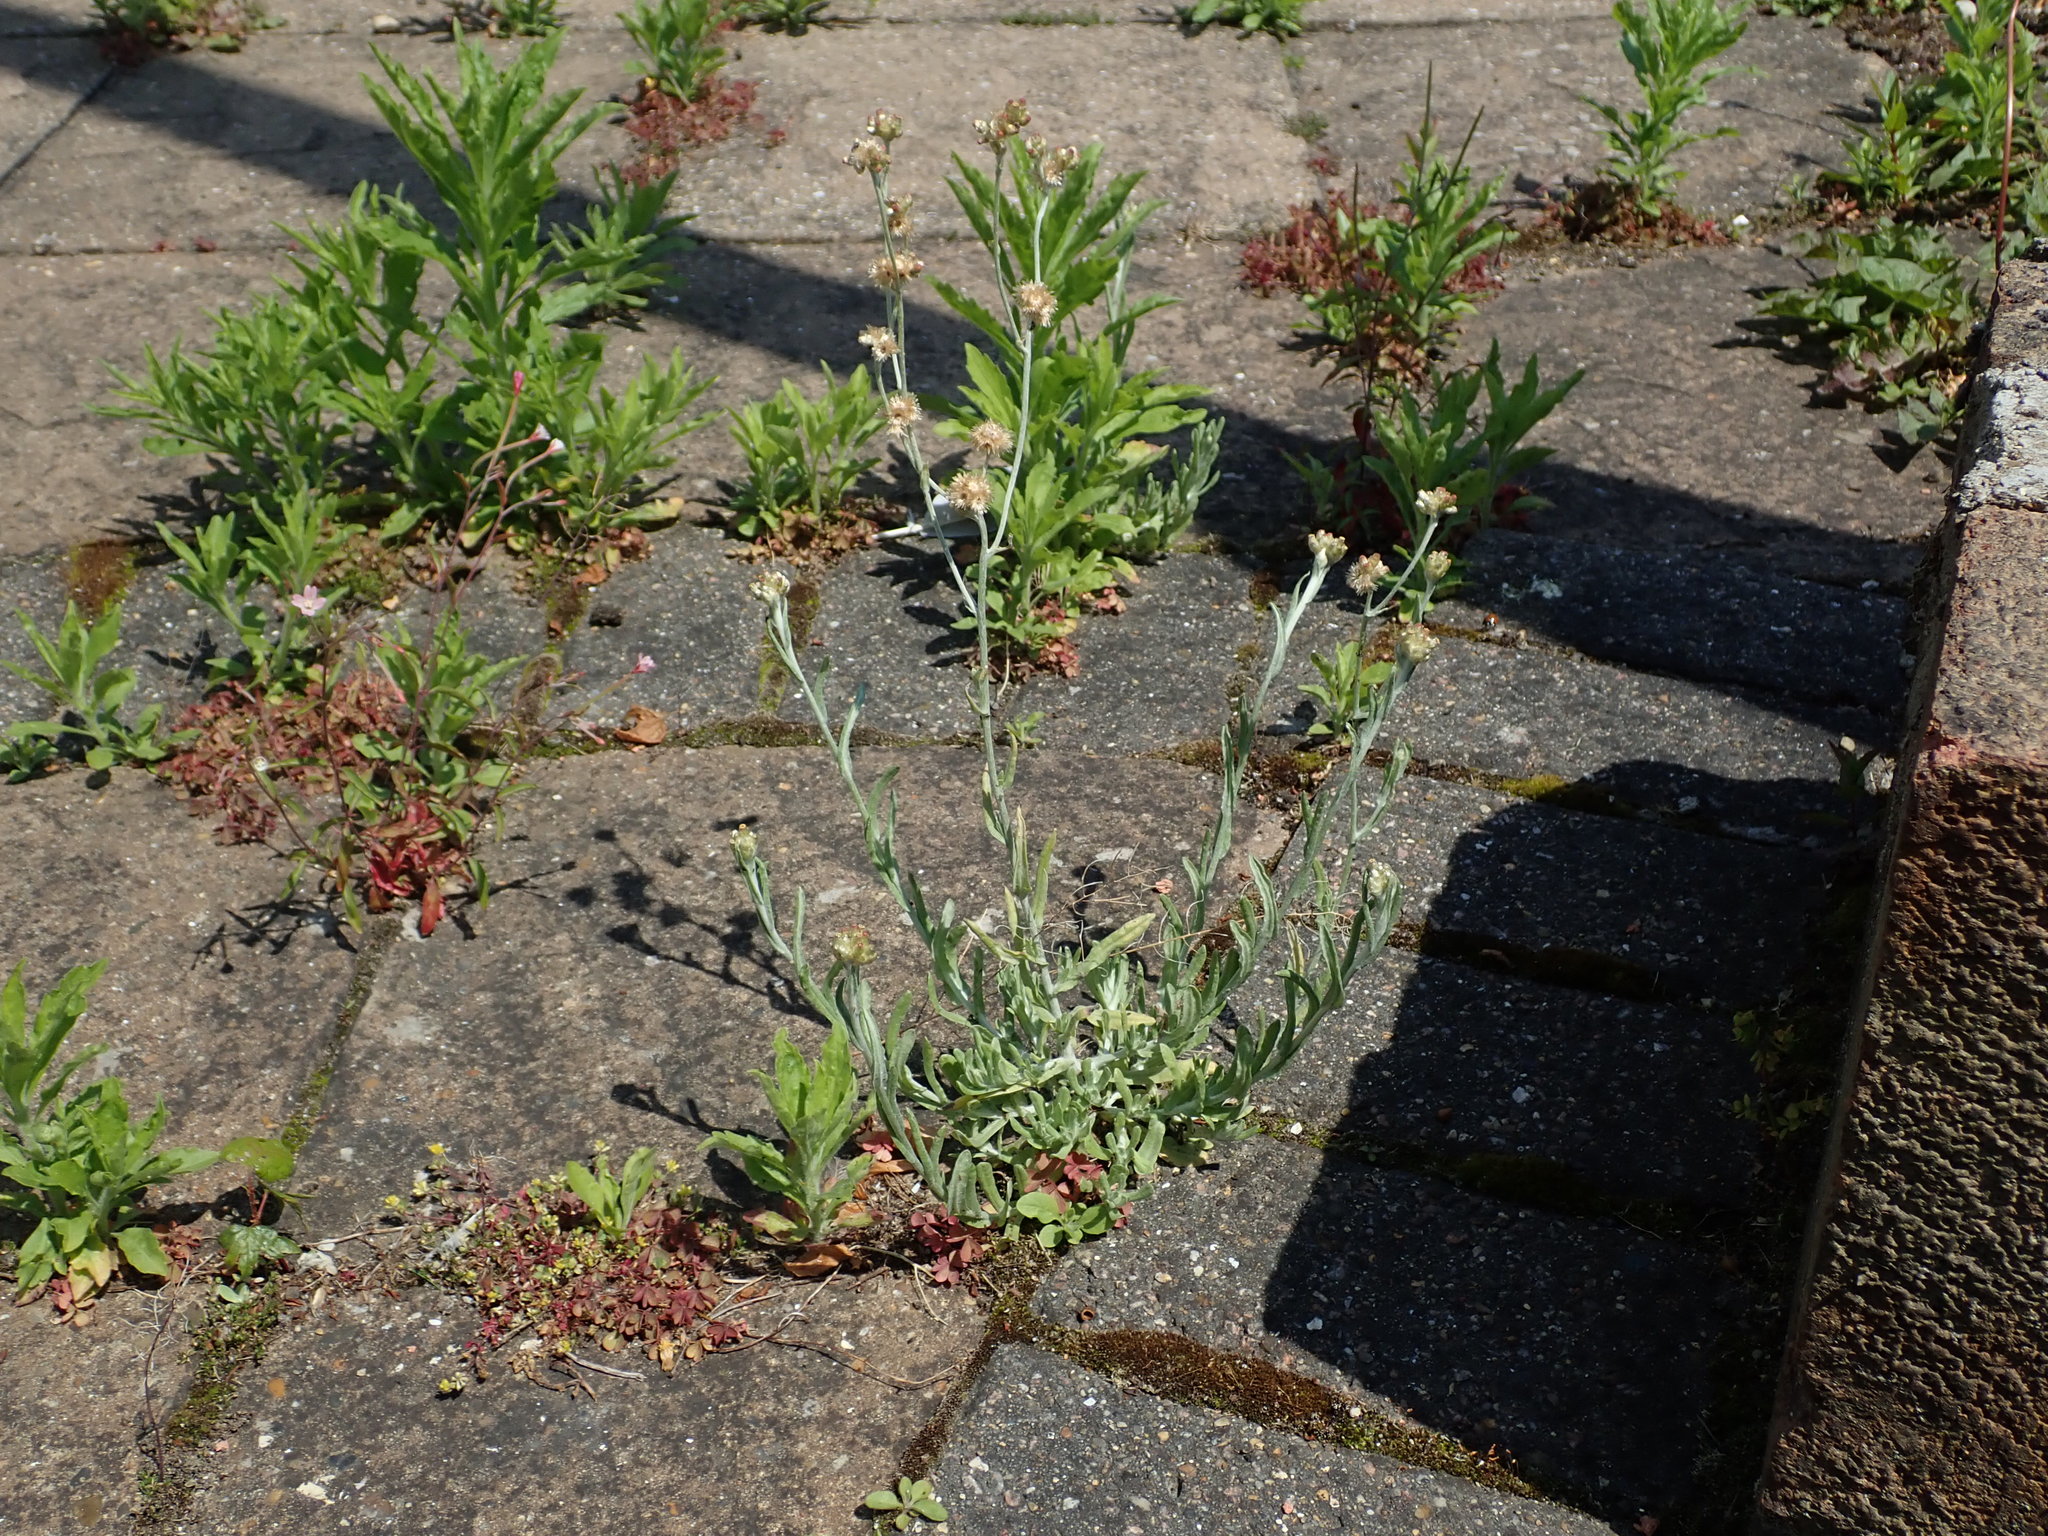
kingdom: Plantae
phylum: Tracheophyta
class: Magnoliopsida
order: Asterales
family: Asteraceae
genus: Helichrysum
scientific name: Helichrysum luteoalbum
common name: Daisy
